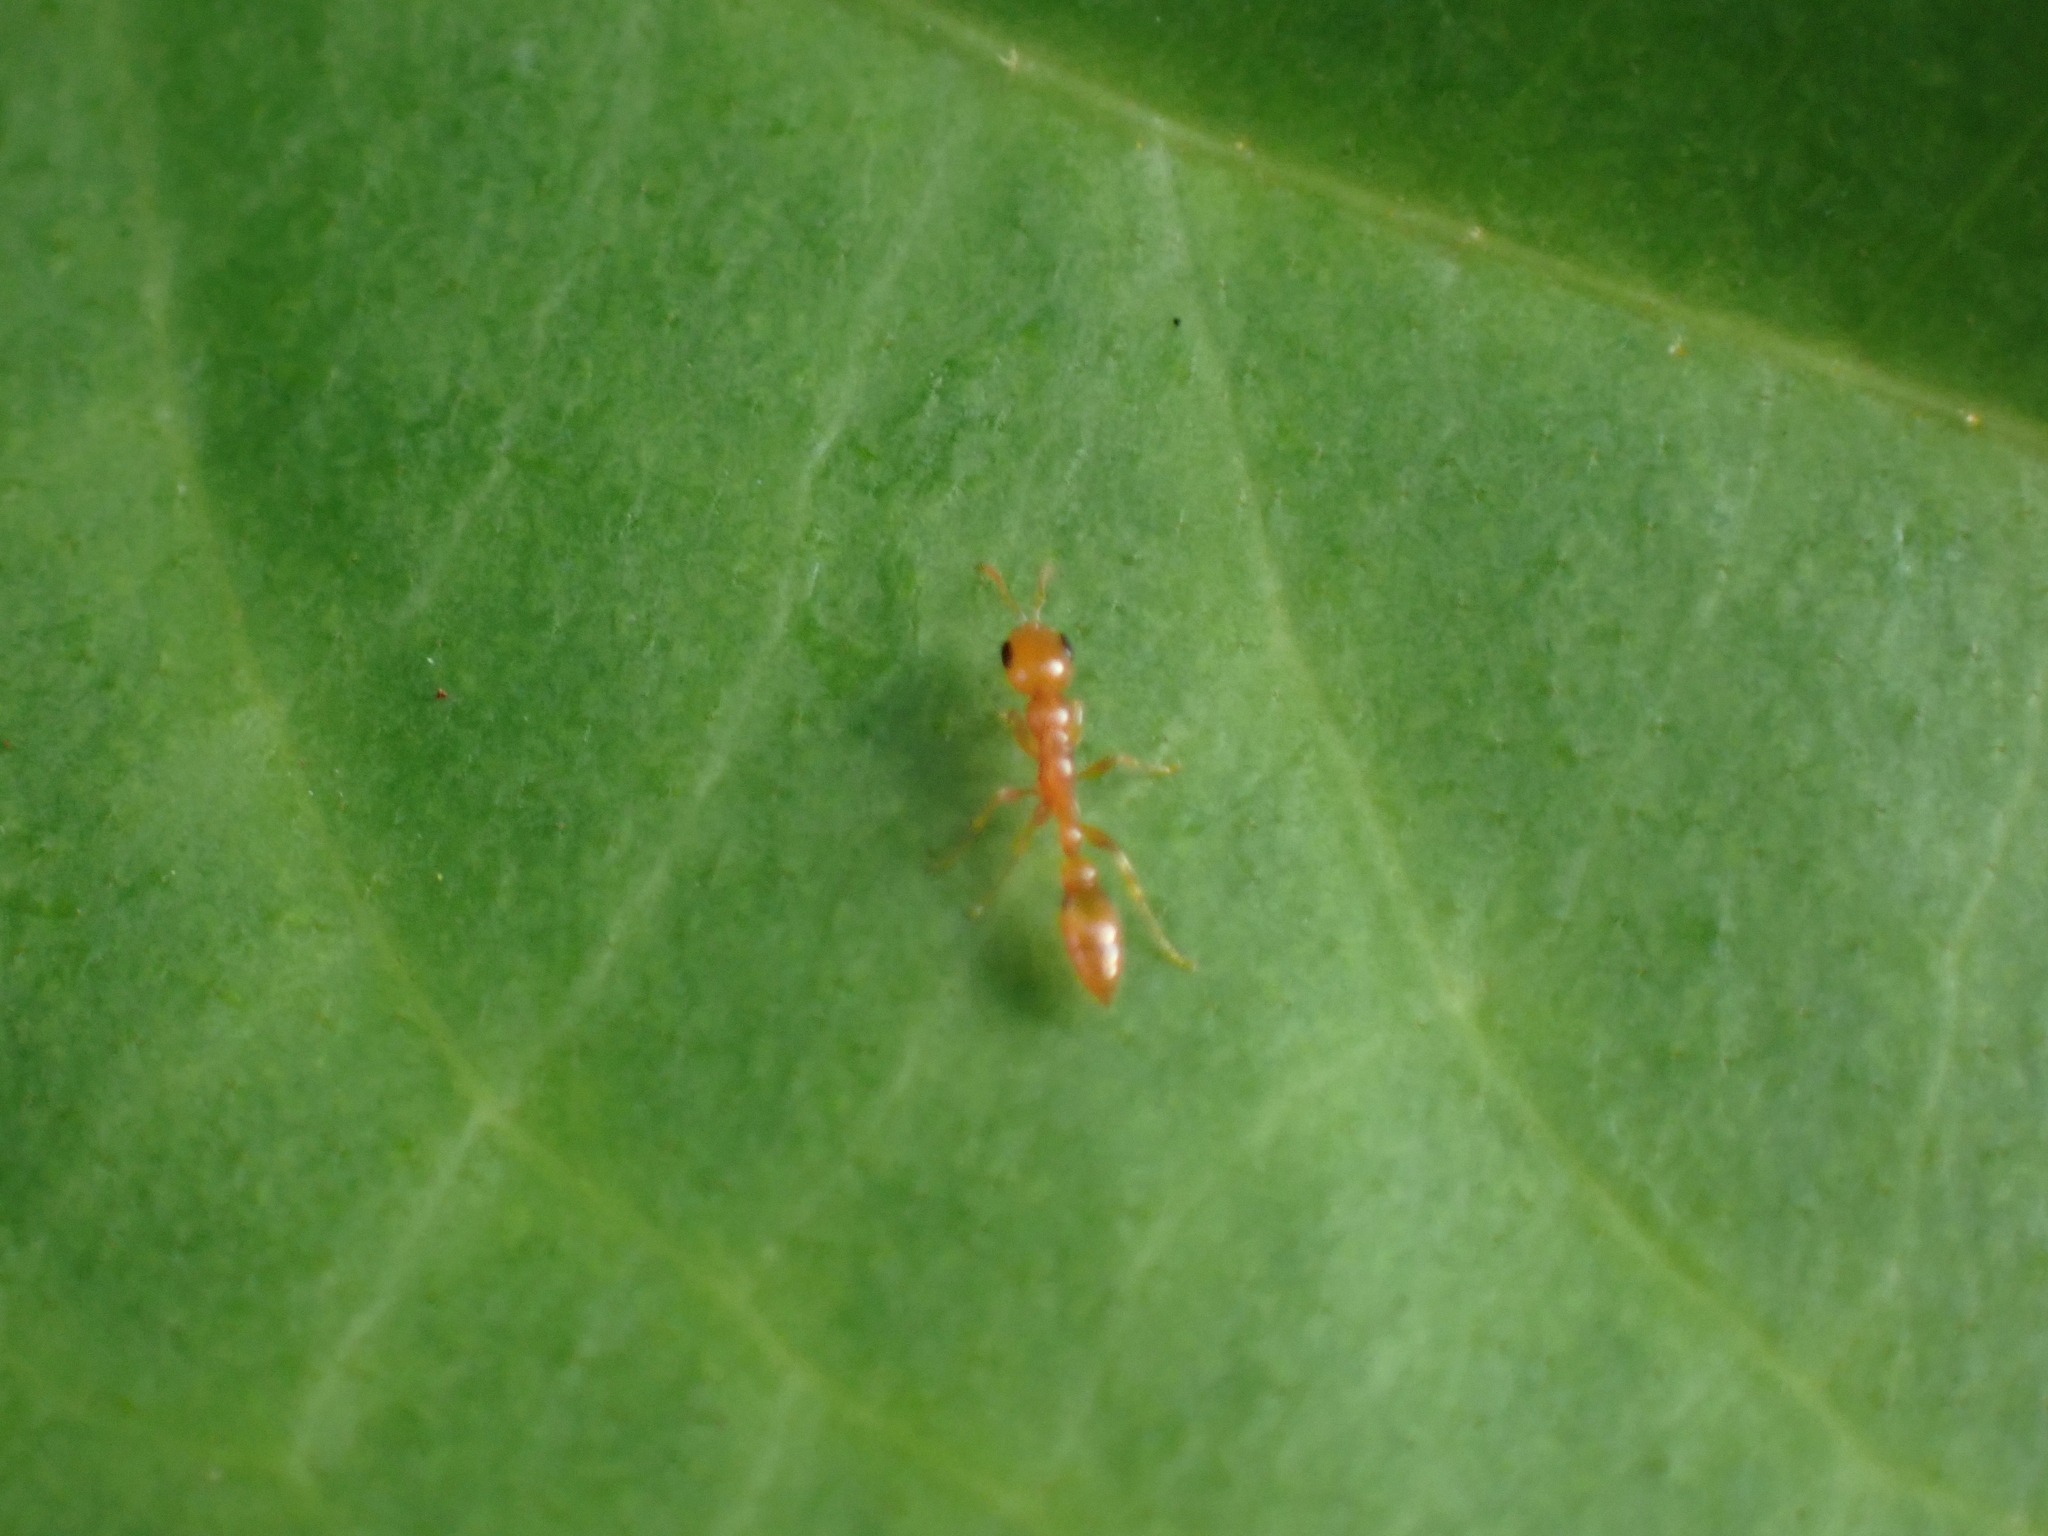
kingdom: Animalia
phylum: Arthropoda
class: Insecta
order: Hymenoptera
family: Formicidae
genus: Pseudomyrmex
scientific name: Pseudomyrmex pallidus
